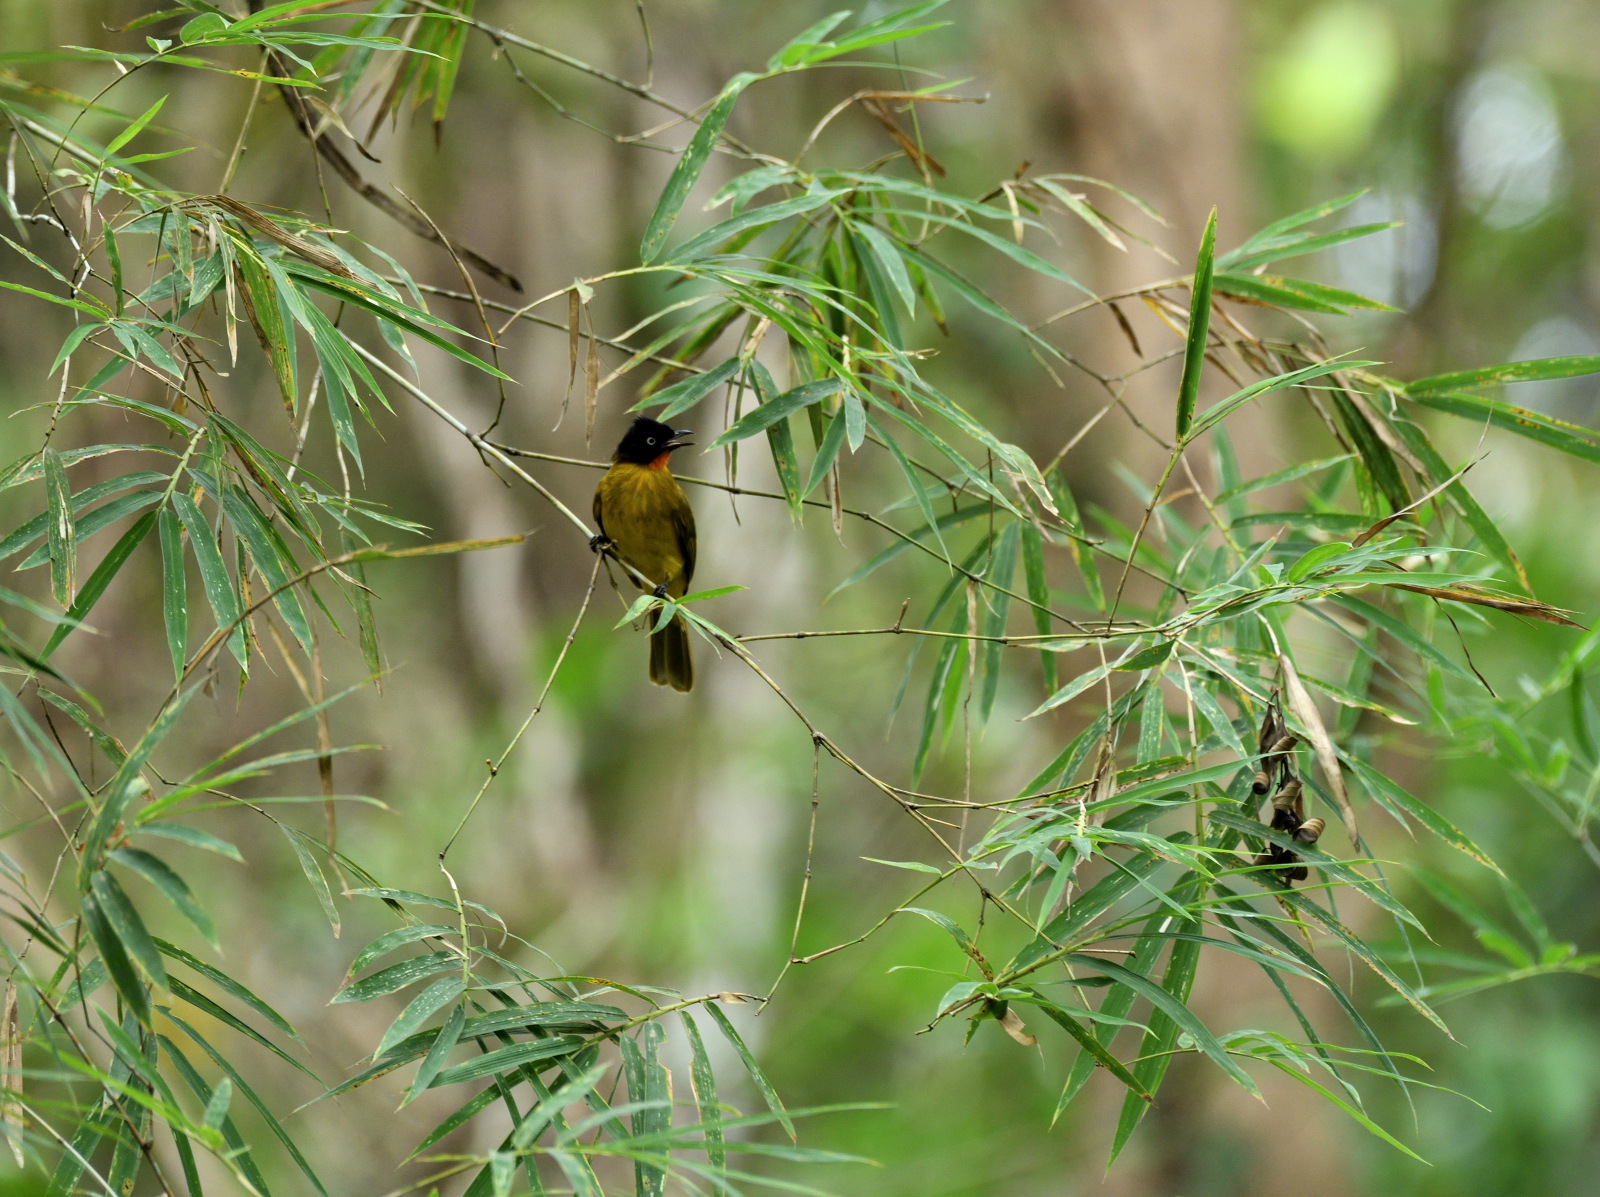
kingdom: Animalia
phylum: Chordata
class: Aves
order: Passeriformes
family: Pycnonotidae
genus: Pycnonotus
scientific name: Pycnonotus gularis
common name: Flame-throated bulbul
